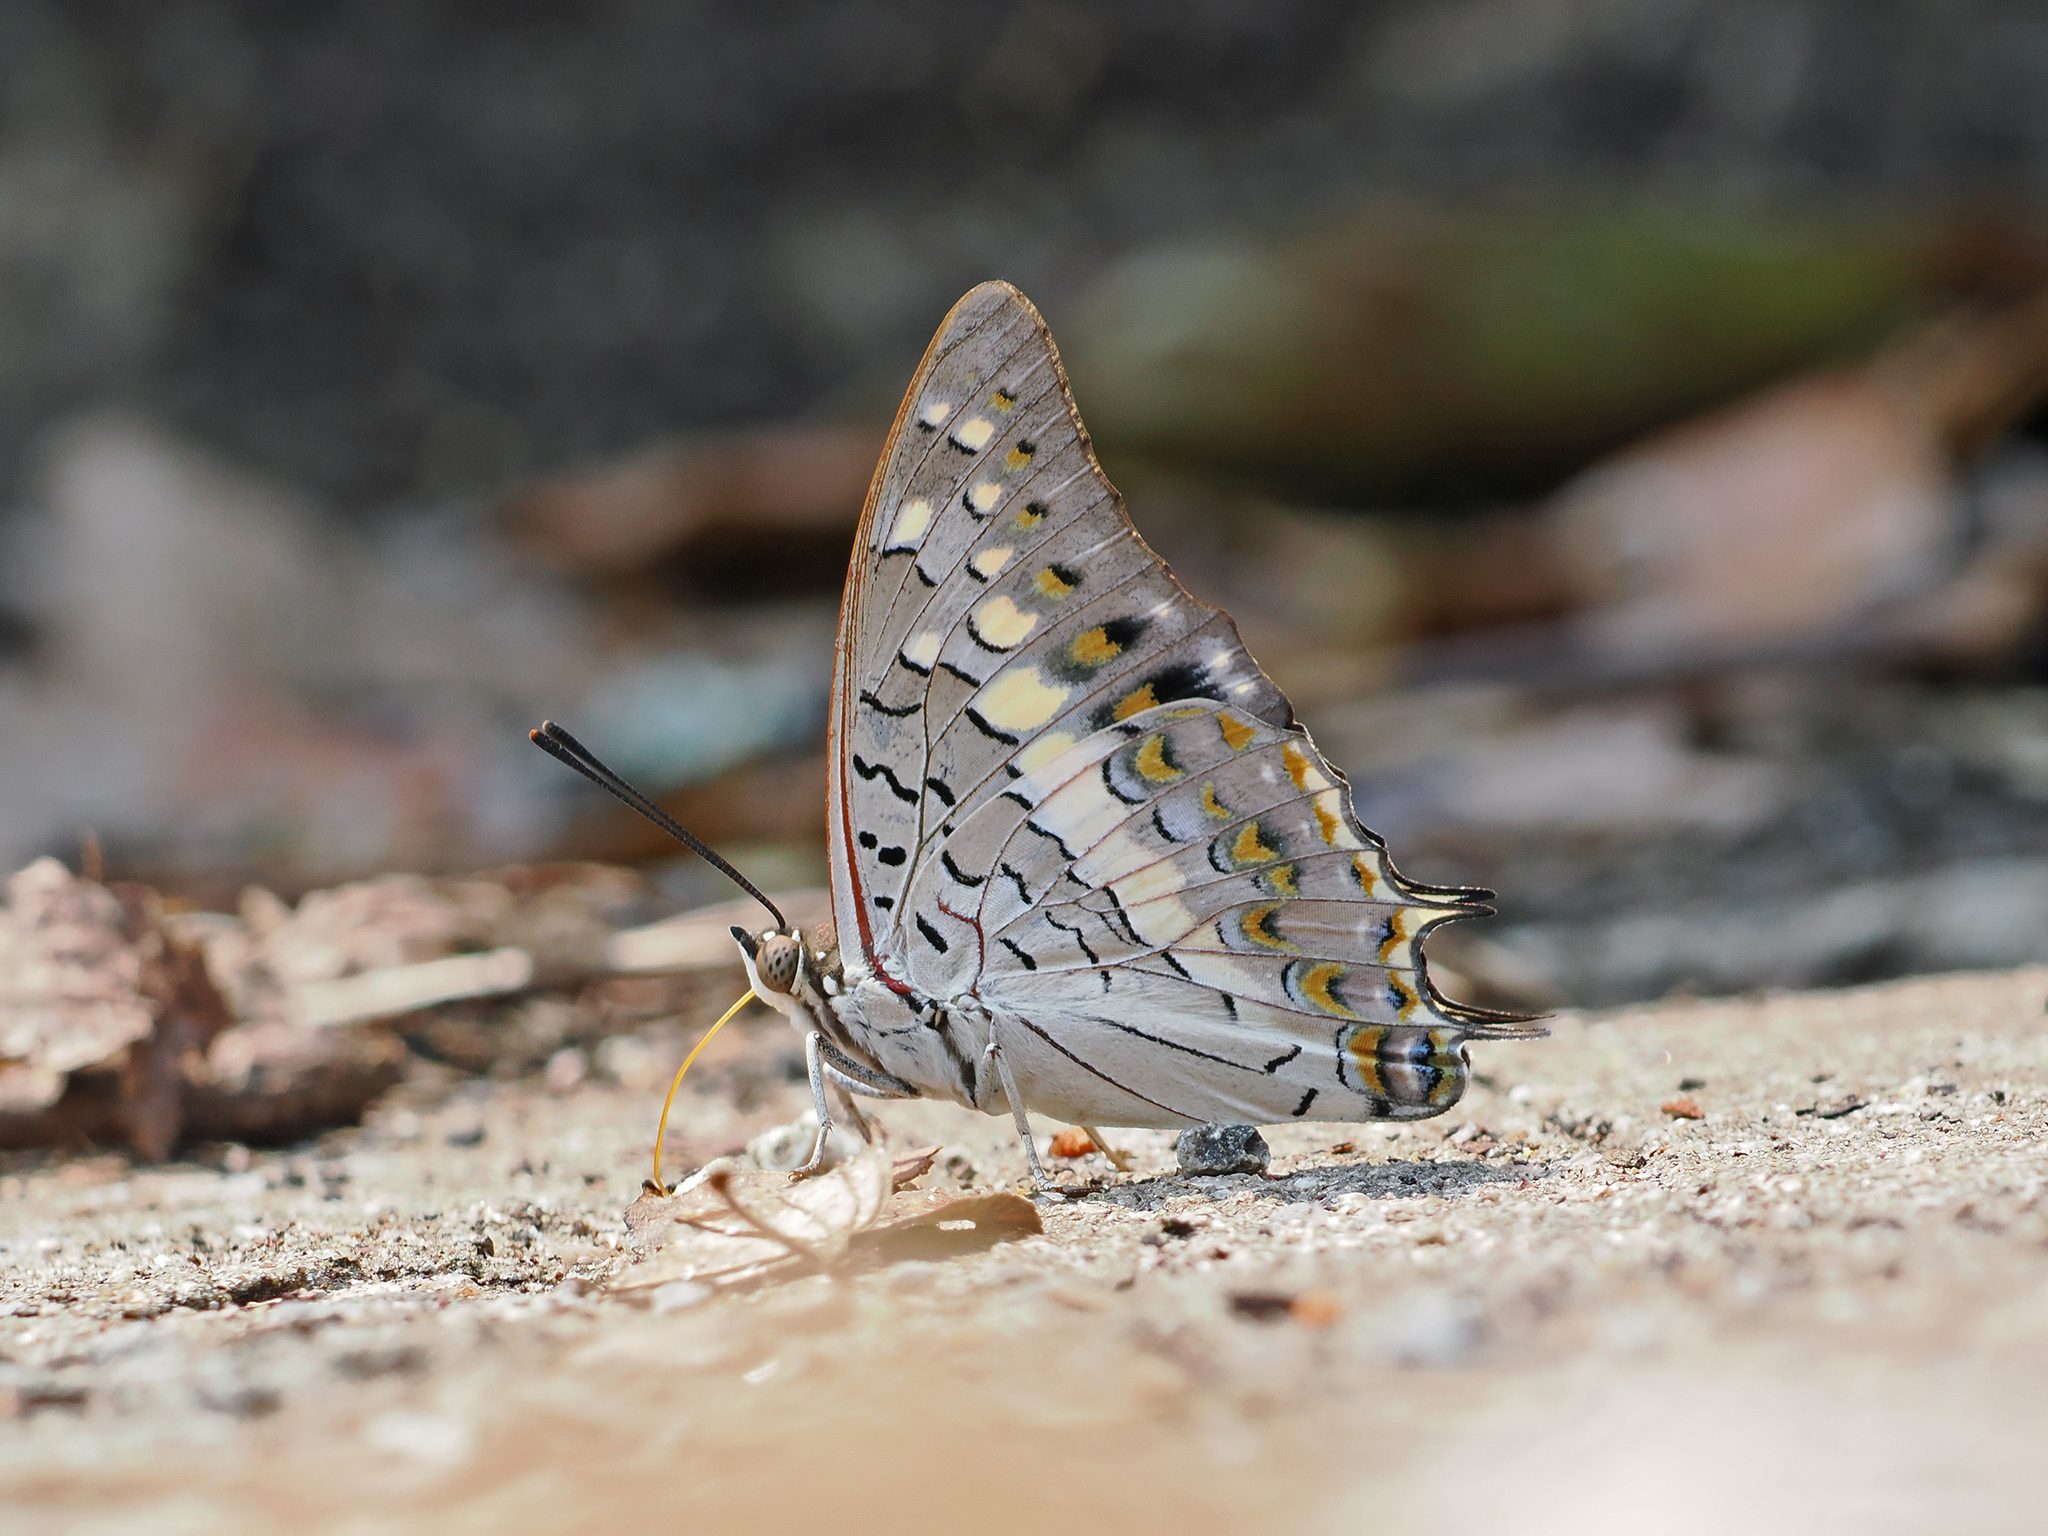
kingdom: Animalia
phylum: Arthropoda
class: Insecta
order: Lepidoptera
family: Nymphalidae
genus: Charaxes
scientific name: Charaxes solon
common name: Black rajah
